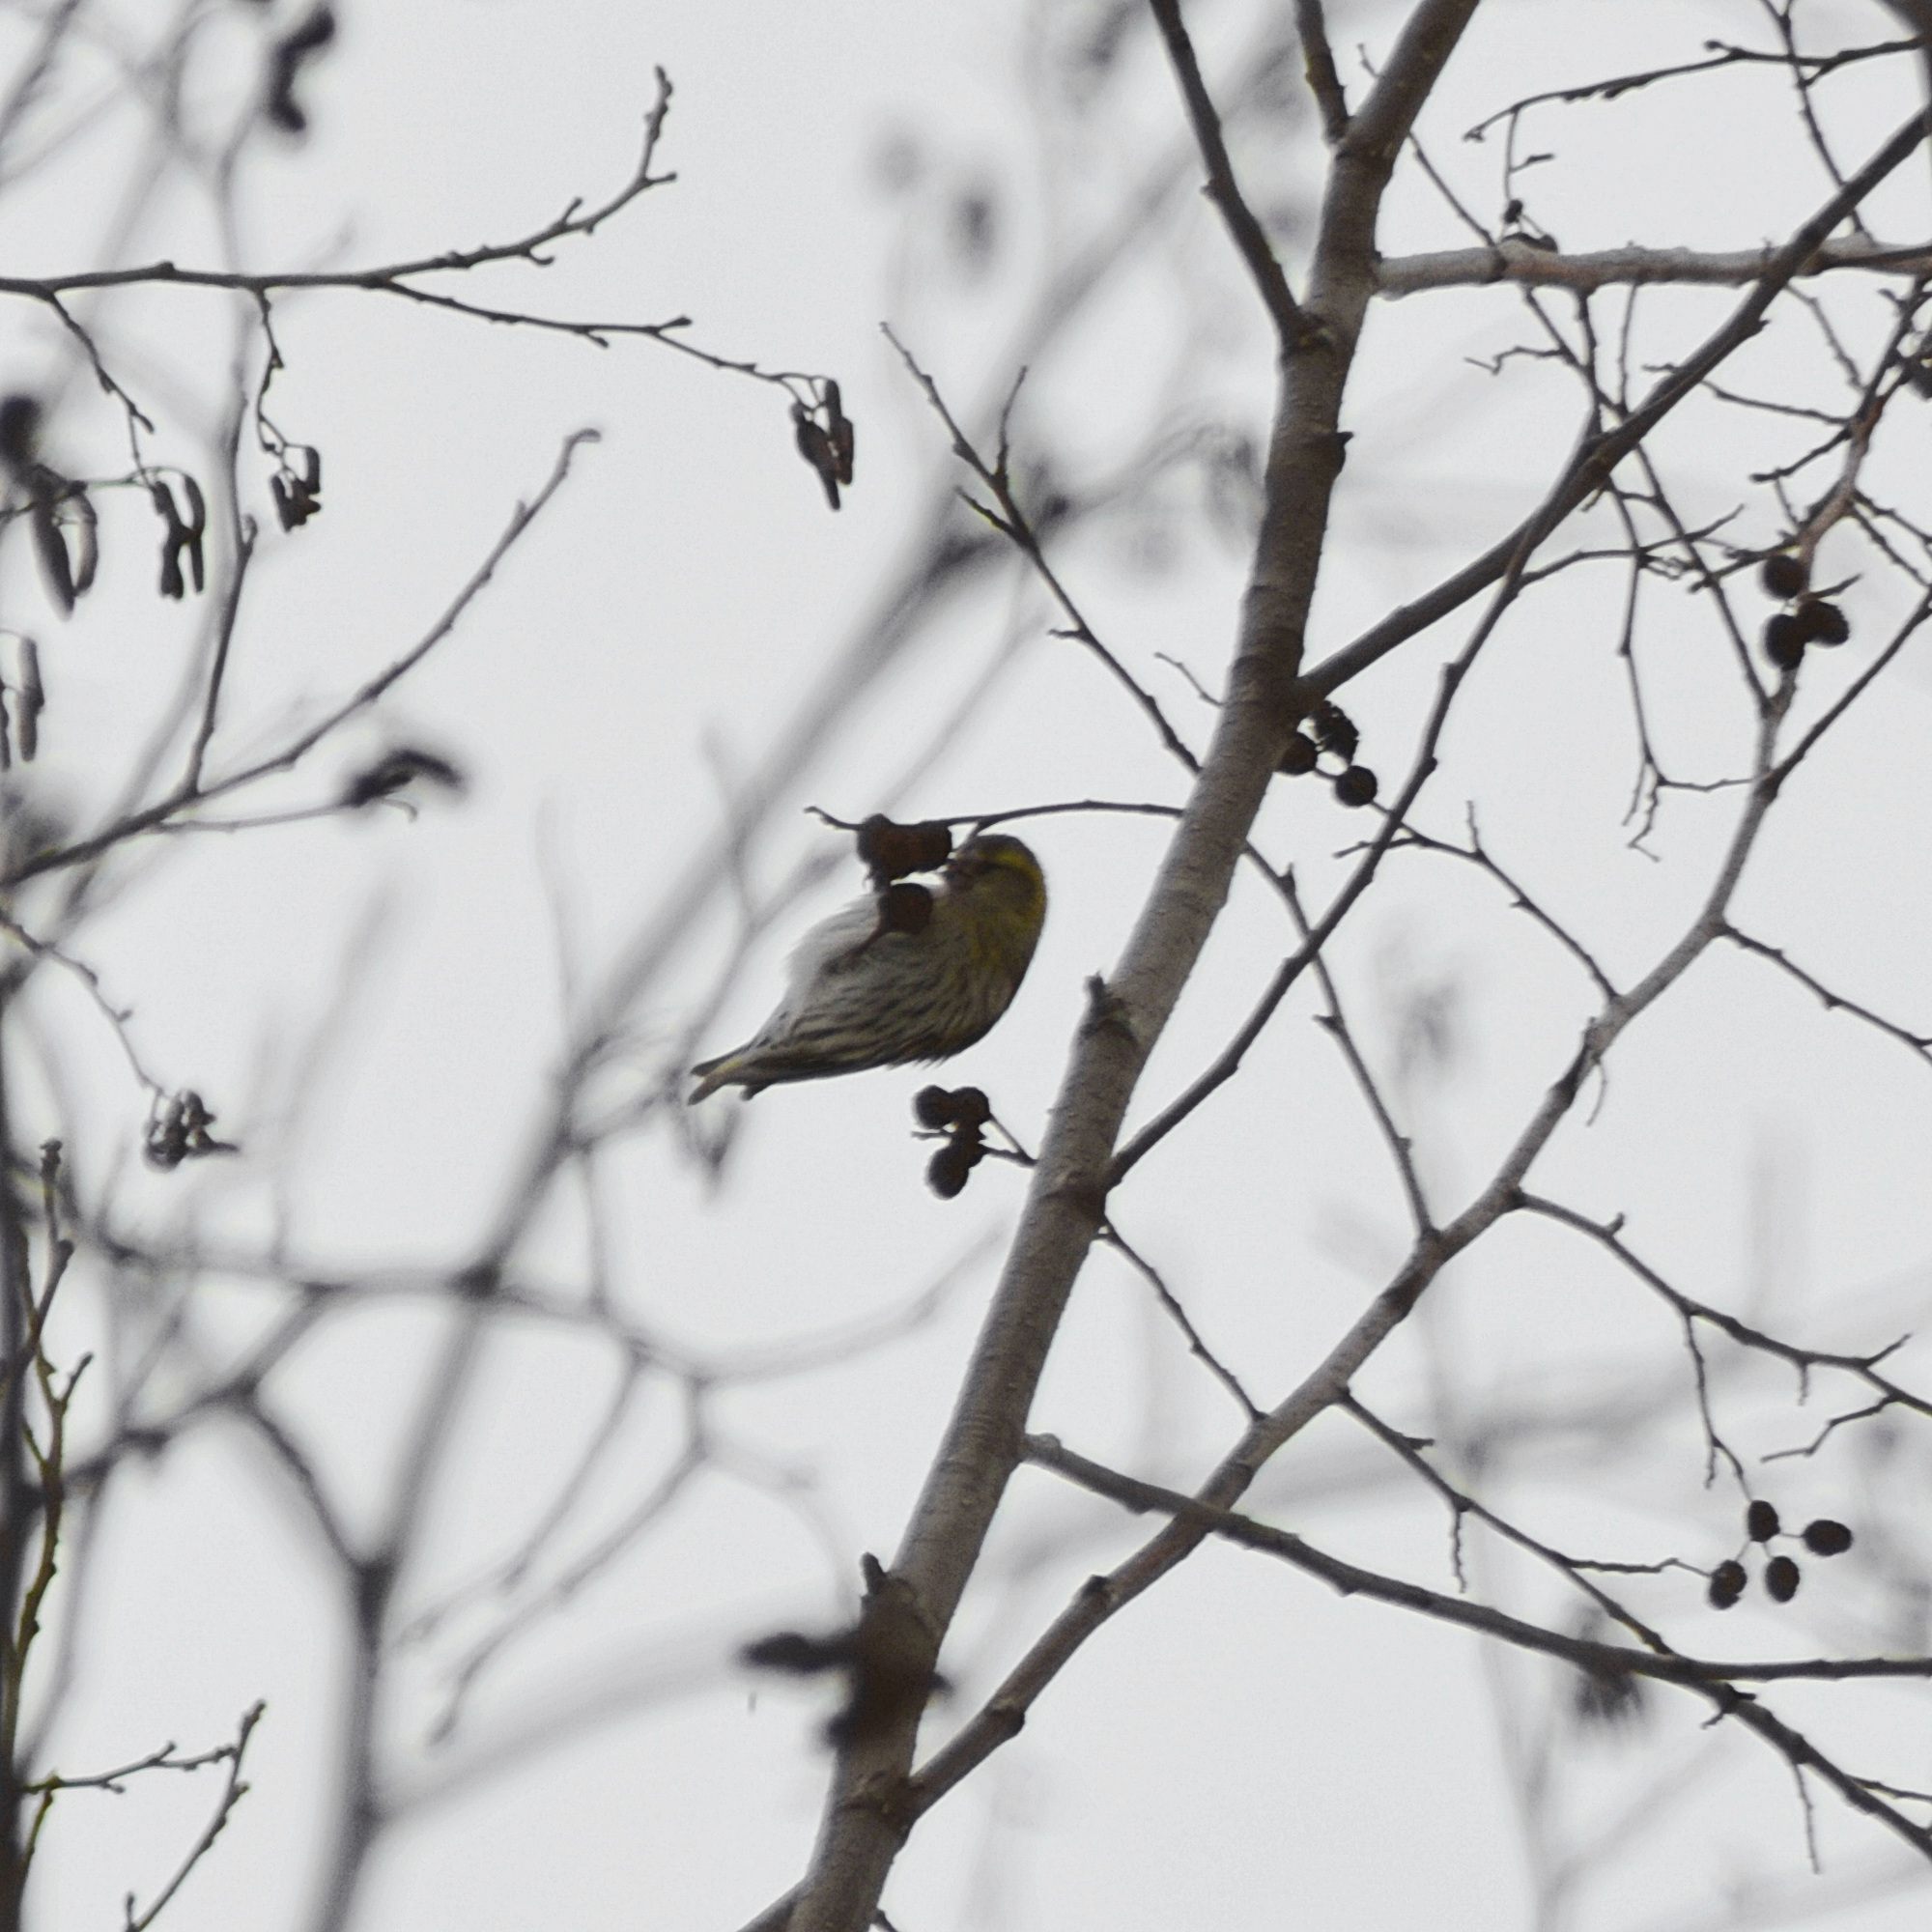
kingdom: Animalia
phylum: Chordata
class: Aves
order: Passeriformes
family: Fringillidae
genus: Spinus
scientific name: Spinus spinus
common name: Eurasian siskin
